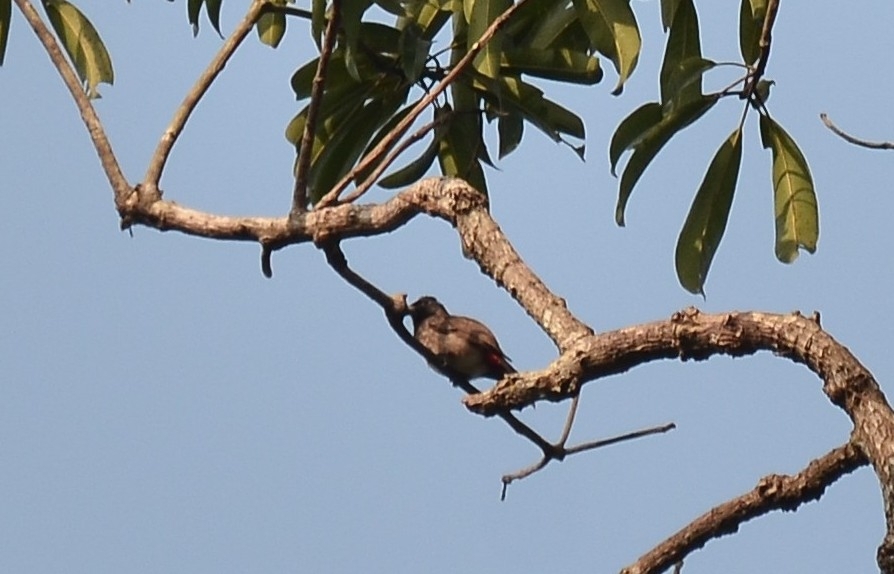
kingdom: Animalia
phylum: Chordata
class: Aves
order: Passeriformes
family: Pycnonotidae
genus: Pycnonotus
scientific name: Pycnonotus cafer
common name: Red-vented bulbul
